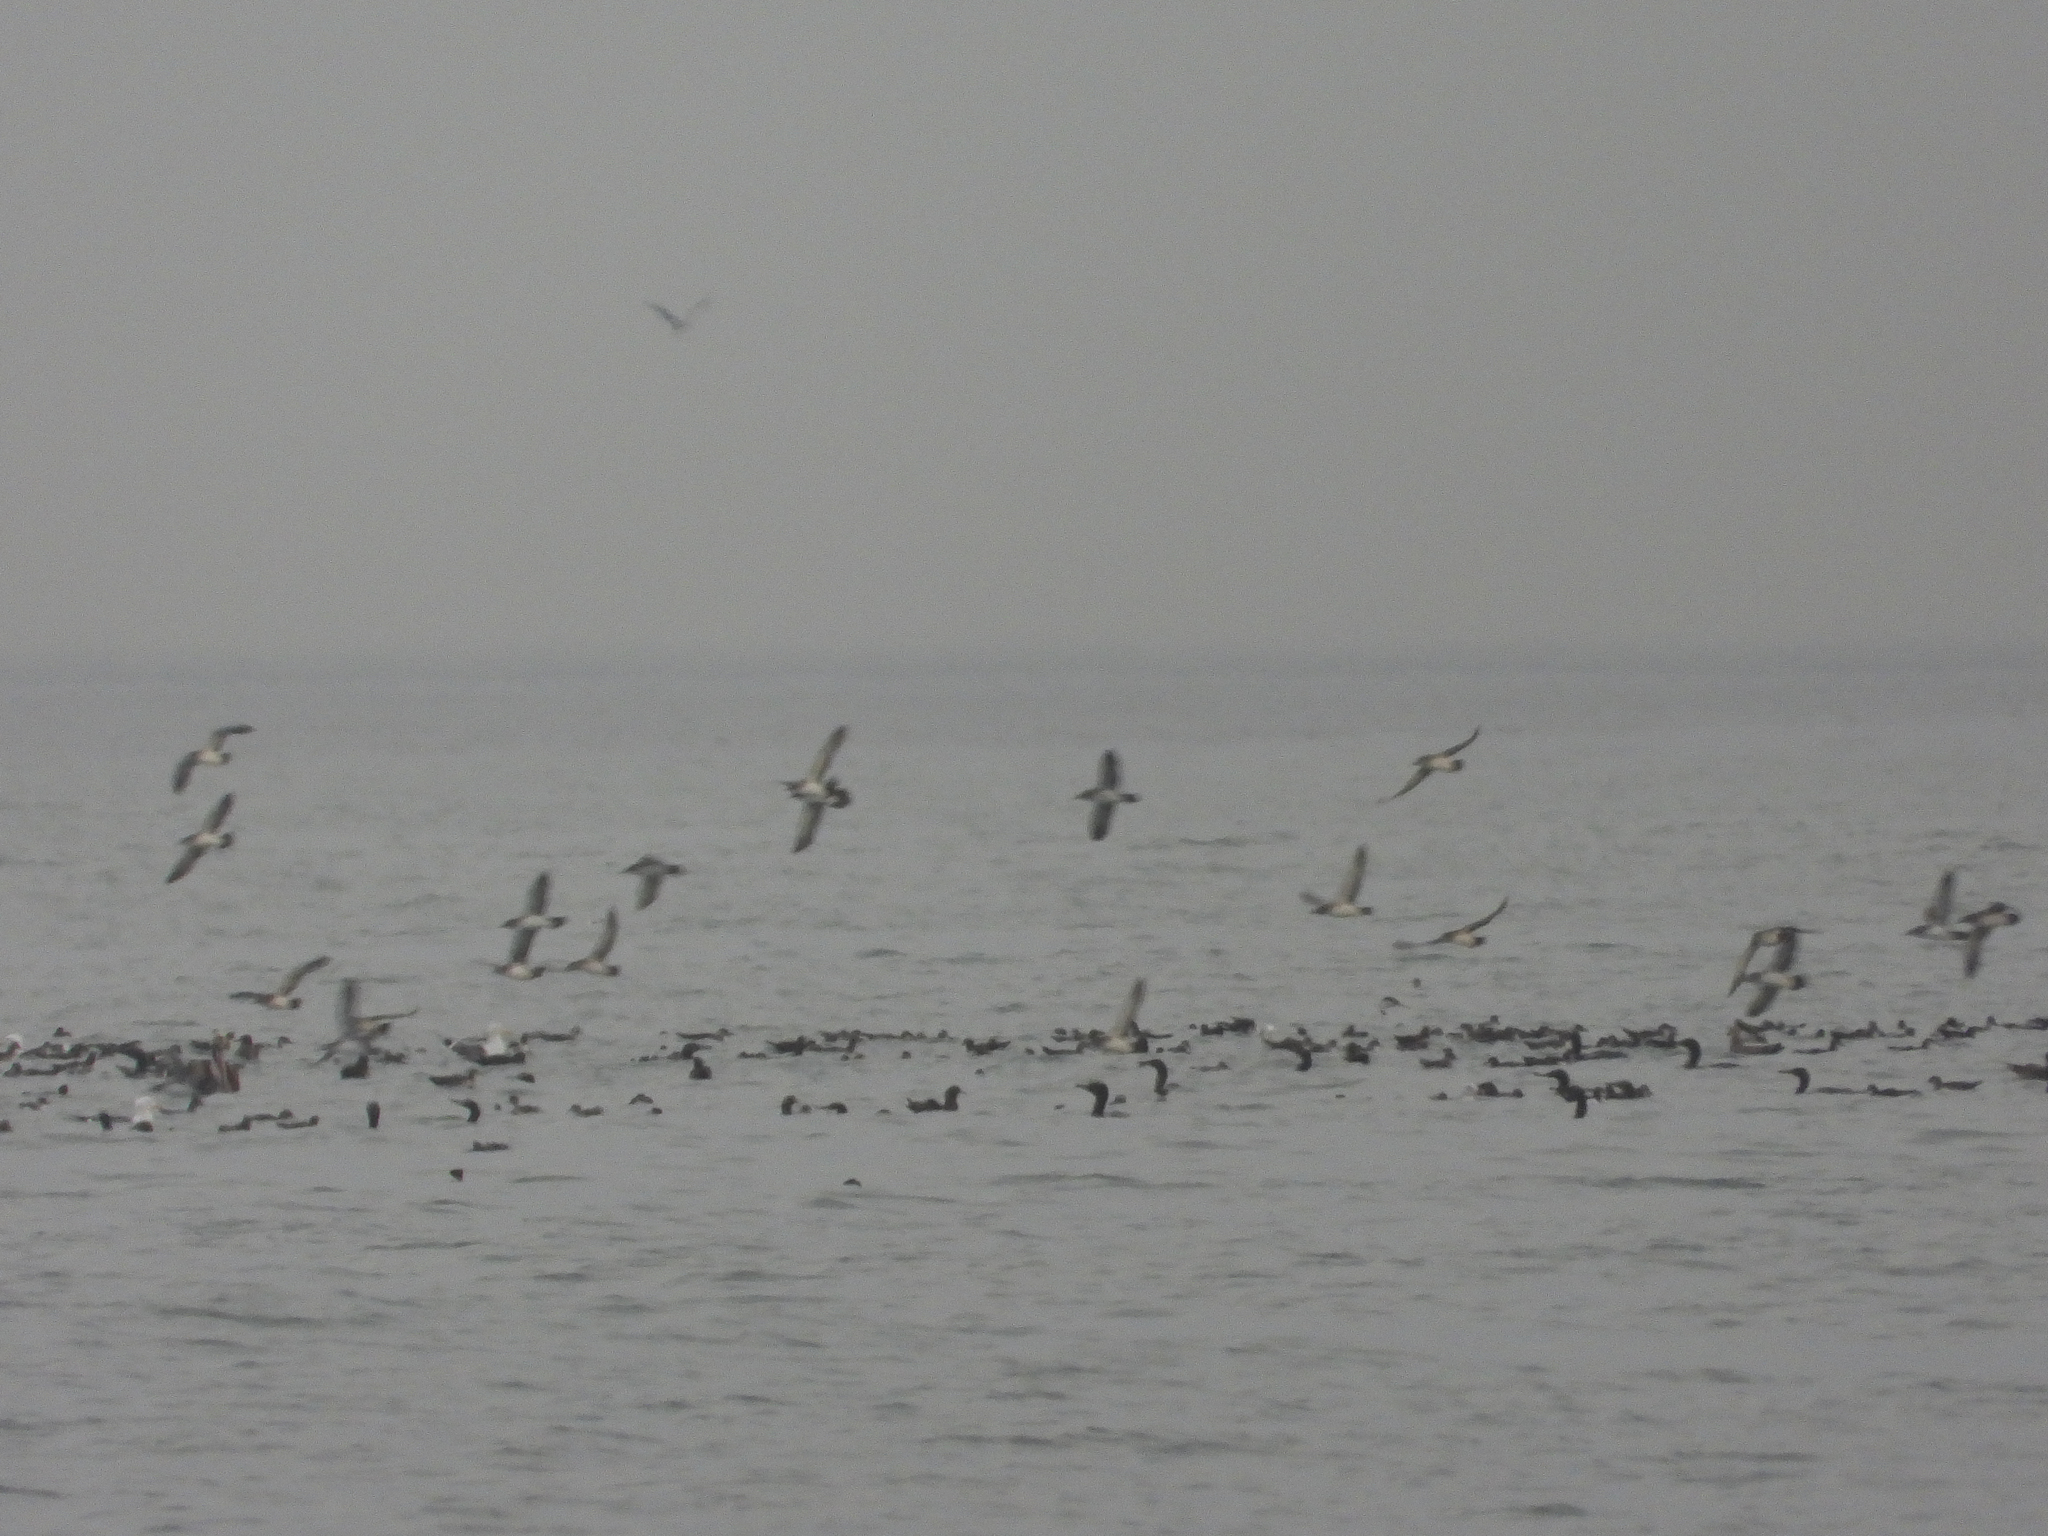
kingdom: Animalia
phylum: Chordata
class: Aves
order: Procellariiformes
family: Procellariidae
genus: Puffinus
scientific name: Puffinus opisthomelas
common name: Black-vented shearwater
